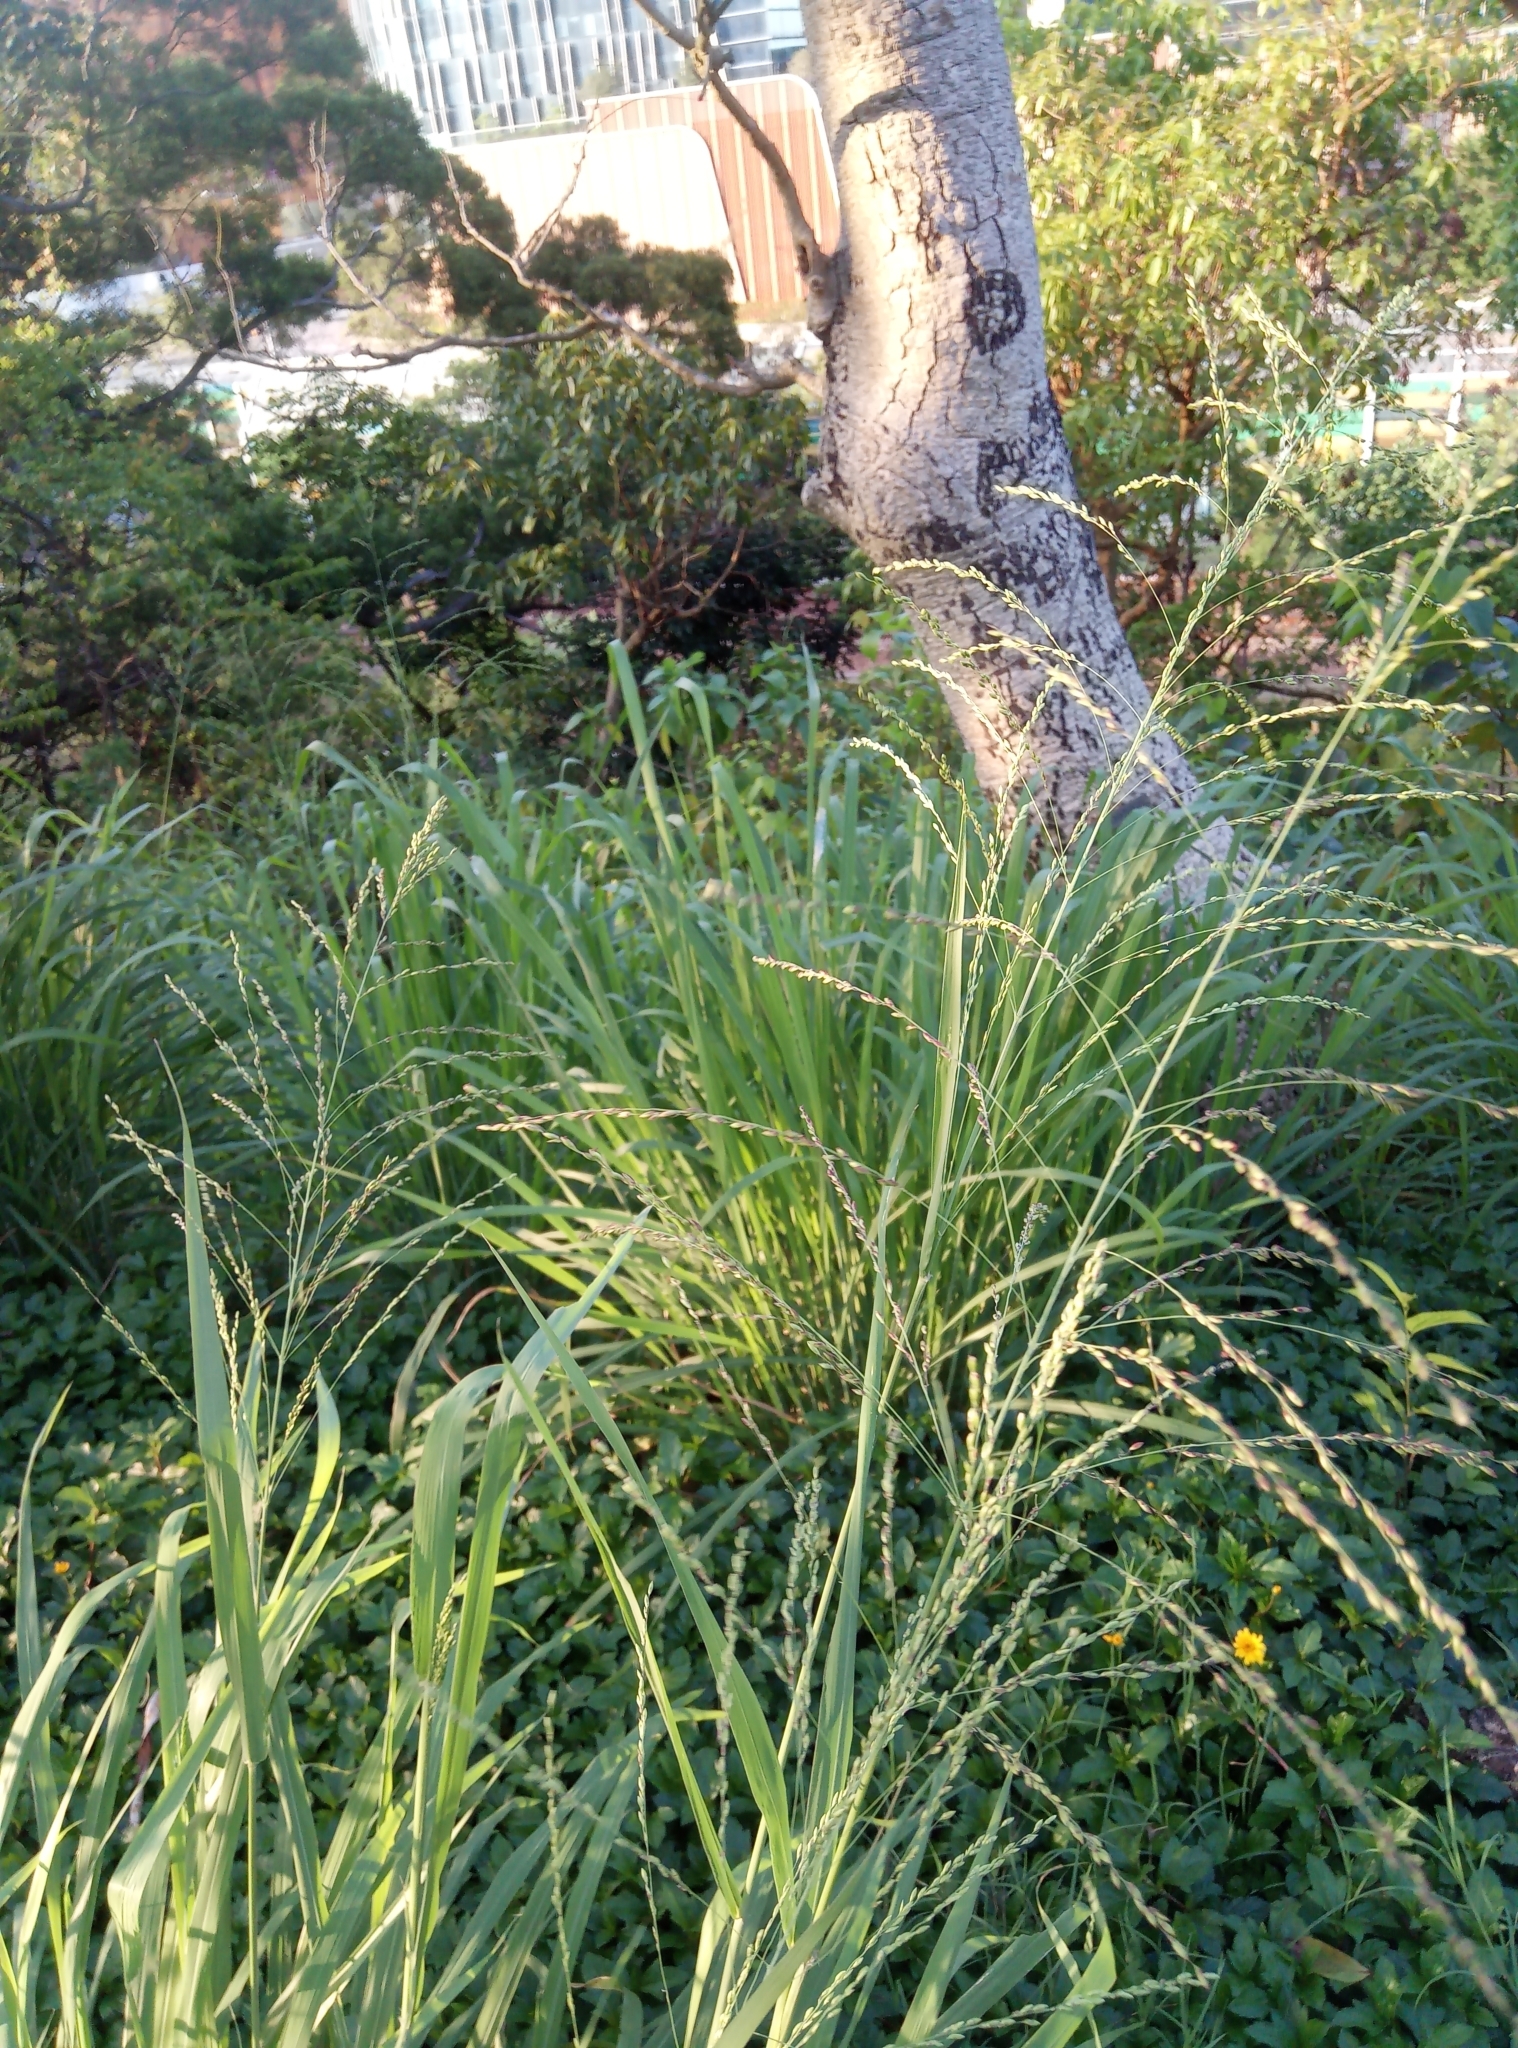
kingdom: Plantae
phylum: Tracheophyta
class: Liliopsida
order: Poales
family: Poaceae
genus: Megathyrsus
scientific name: Megathyrsus maximus
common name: Guineagrass
